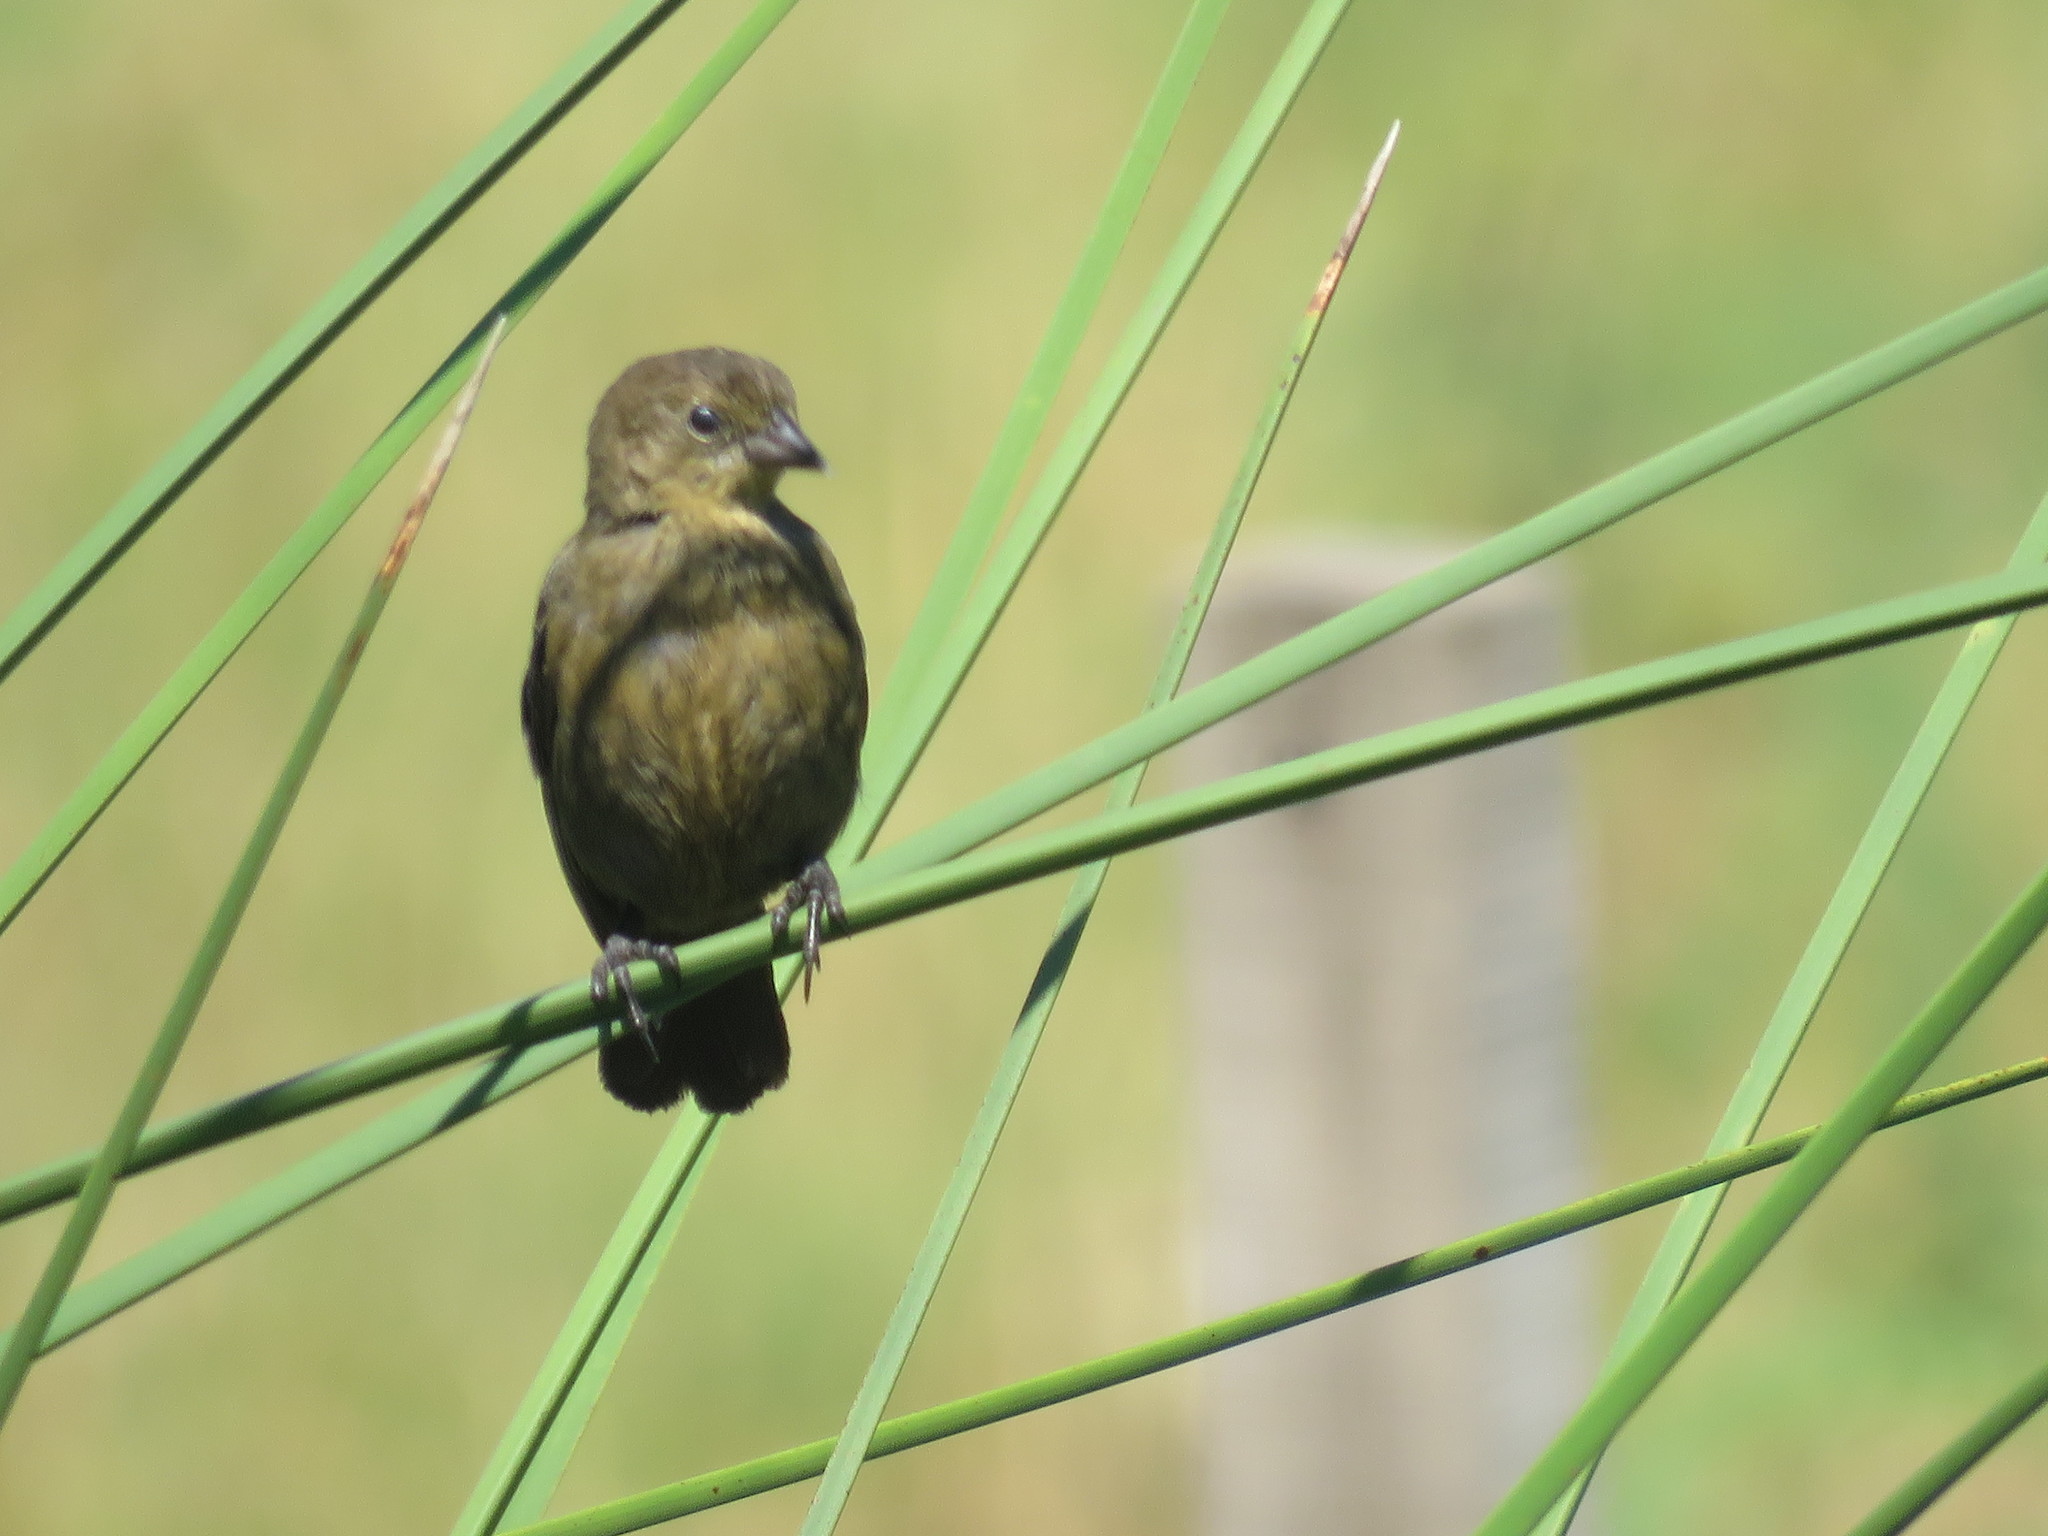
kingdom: Animalia
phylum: Chordata
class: Aves
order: Passeriformes
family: Icteridae
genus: Chrysomus
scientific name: Chrysomus ruficapillus
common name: Chestnut-capped blackbird
